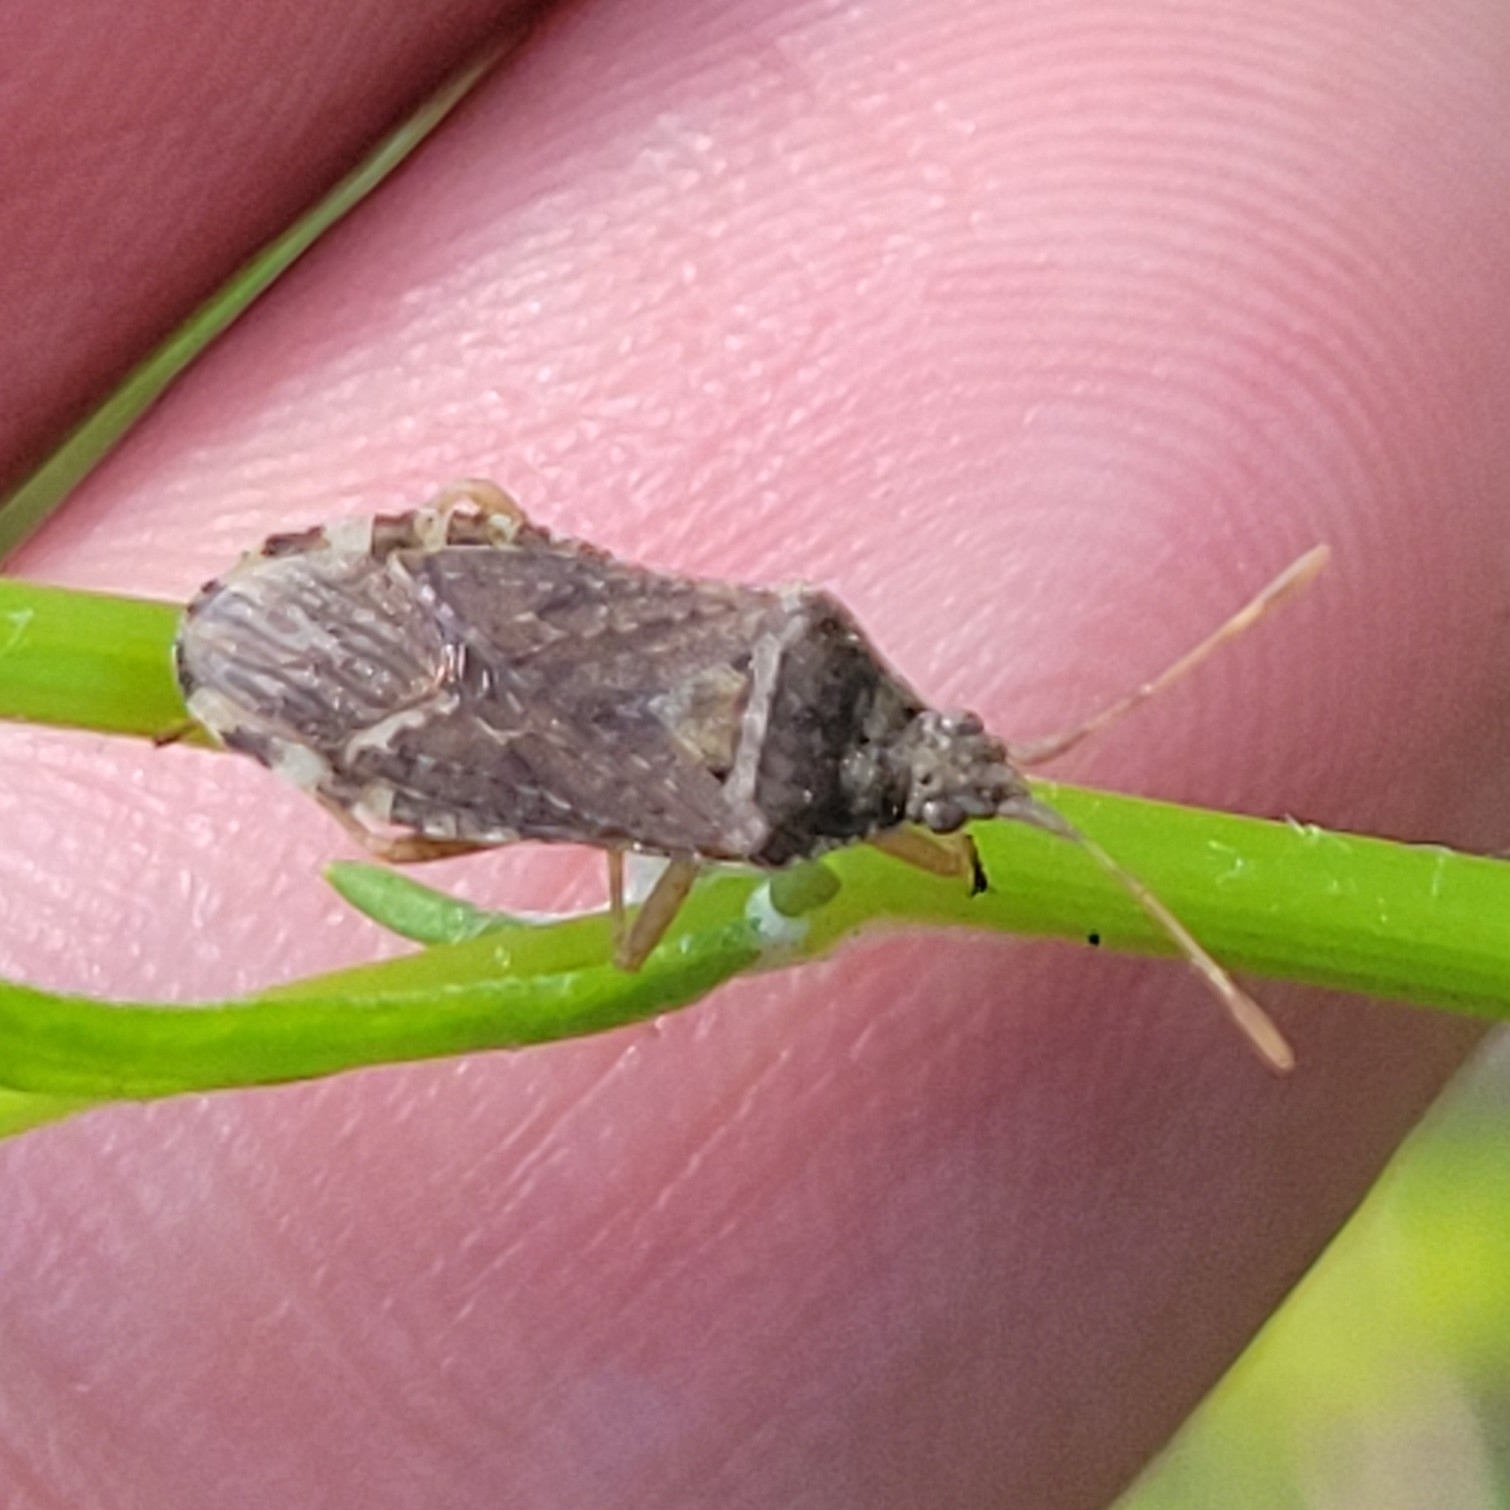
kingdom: Animalia
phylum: Arthropoda
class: Insecta
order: Hemiptera
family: Coreidae
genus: Althos
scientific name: Althos obscurator
